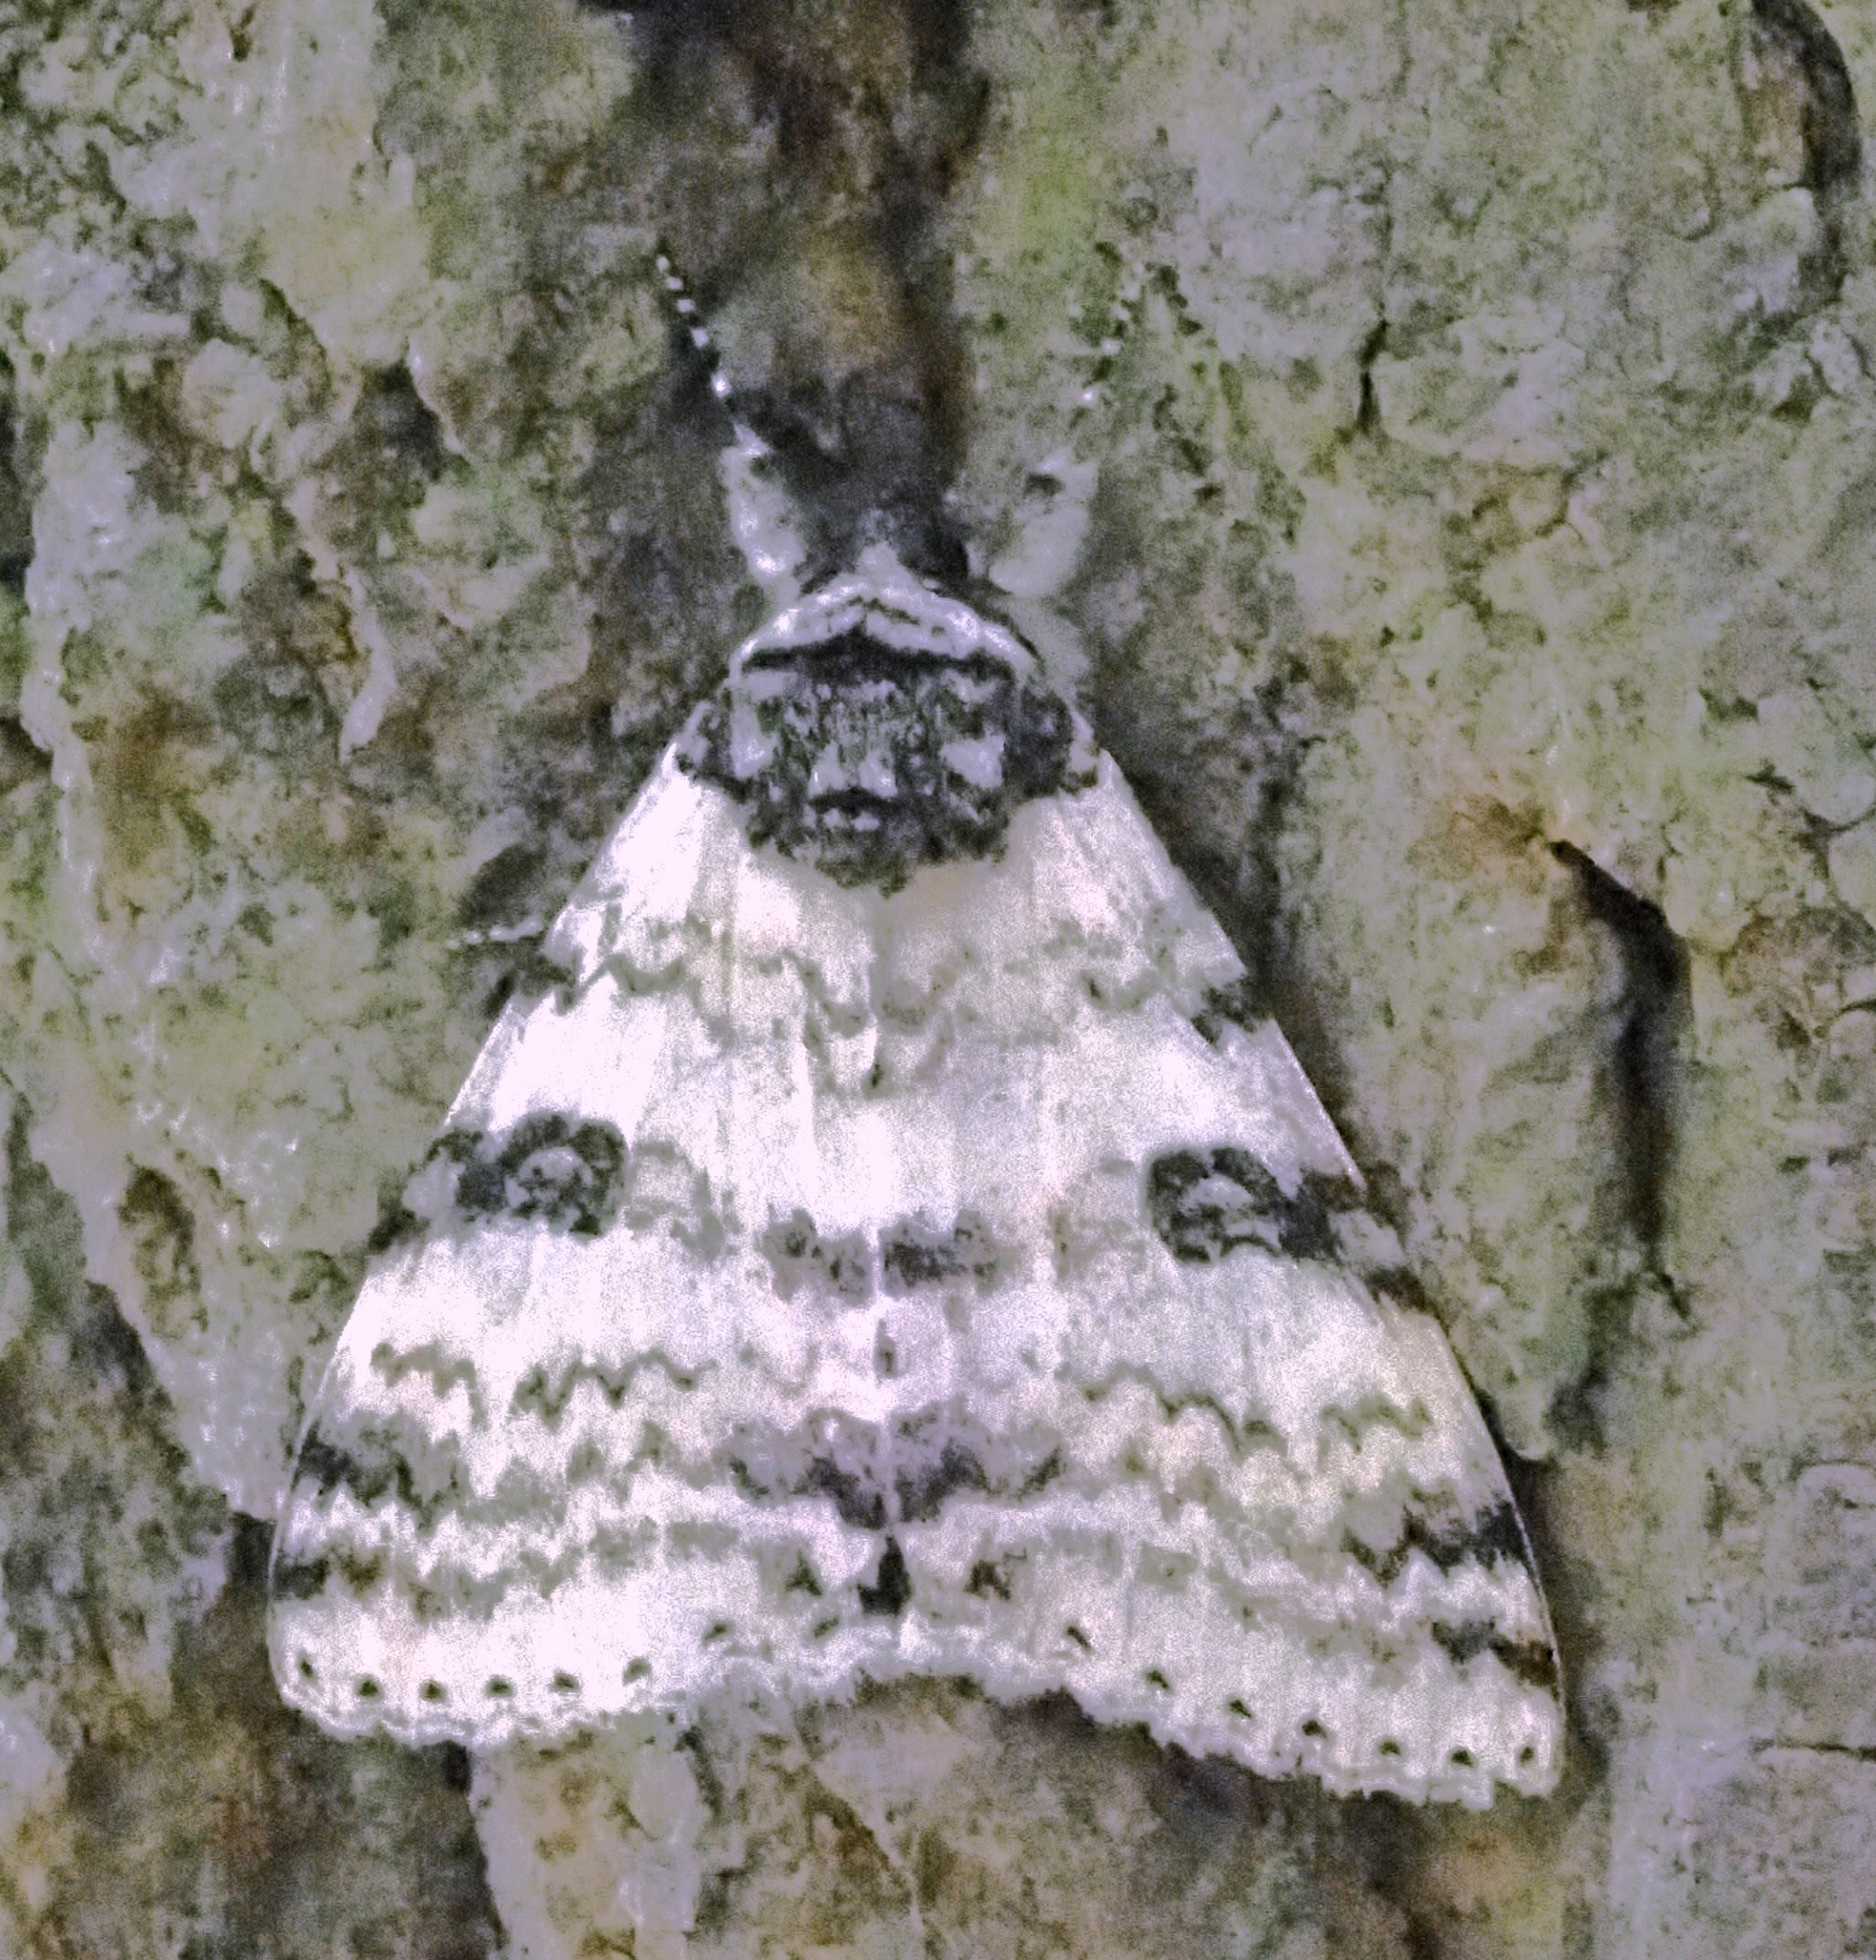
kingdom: Animalia
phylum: Arthropoda
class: Insecta
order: Lepidoptera
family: Erebidae
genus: Catocala
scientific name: Catocala relicta
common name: White underwing
